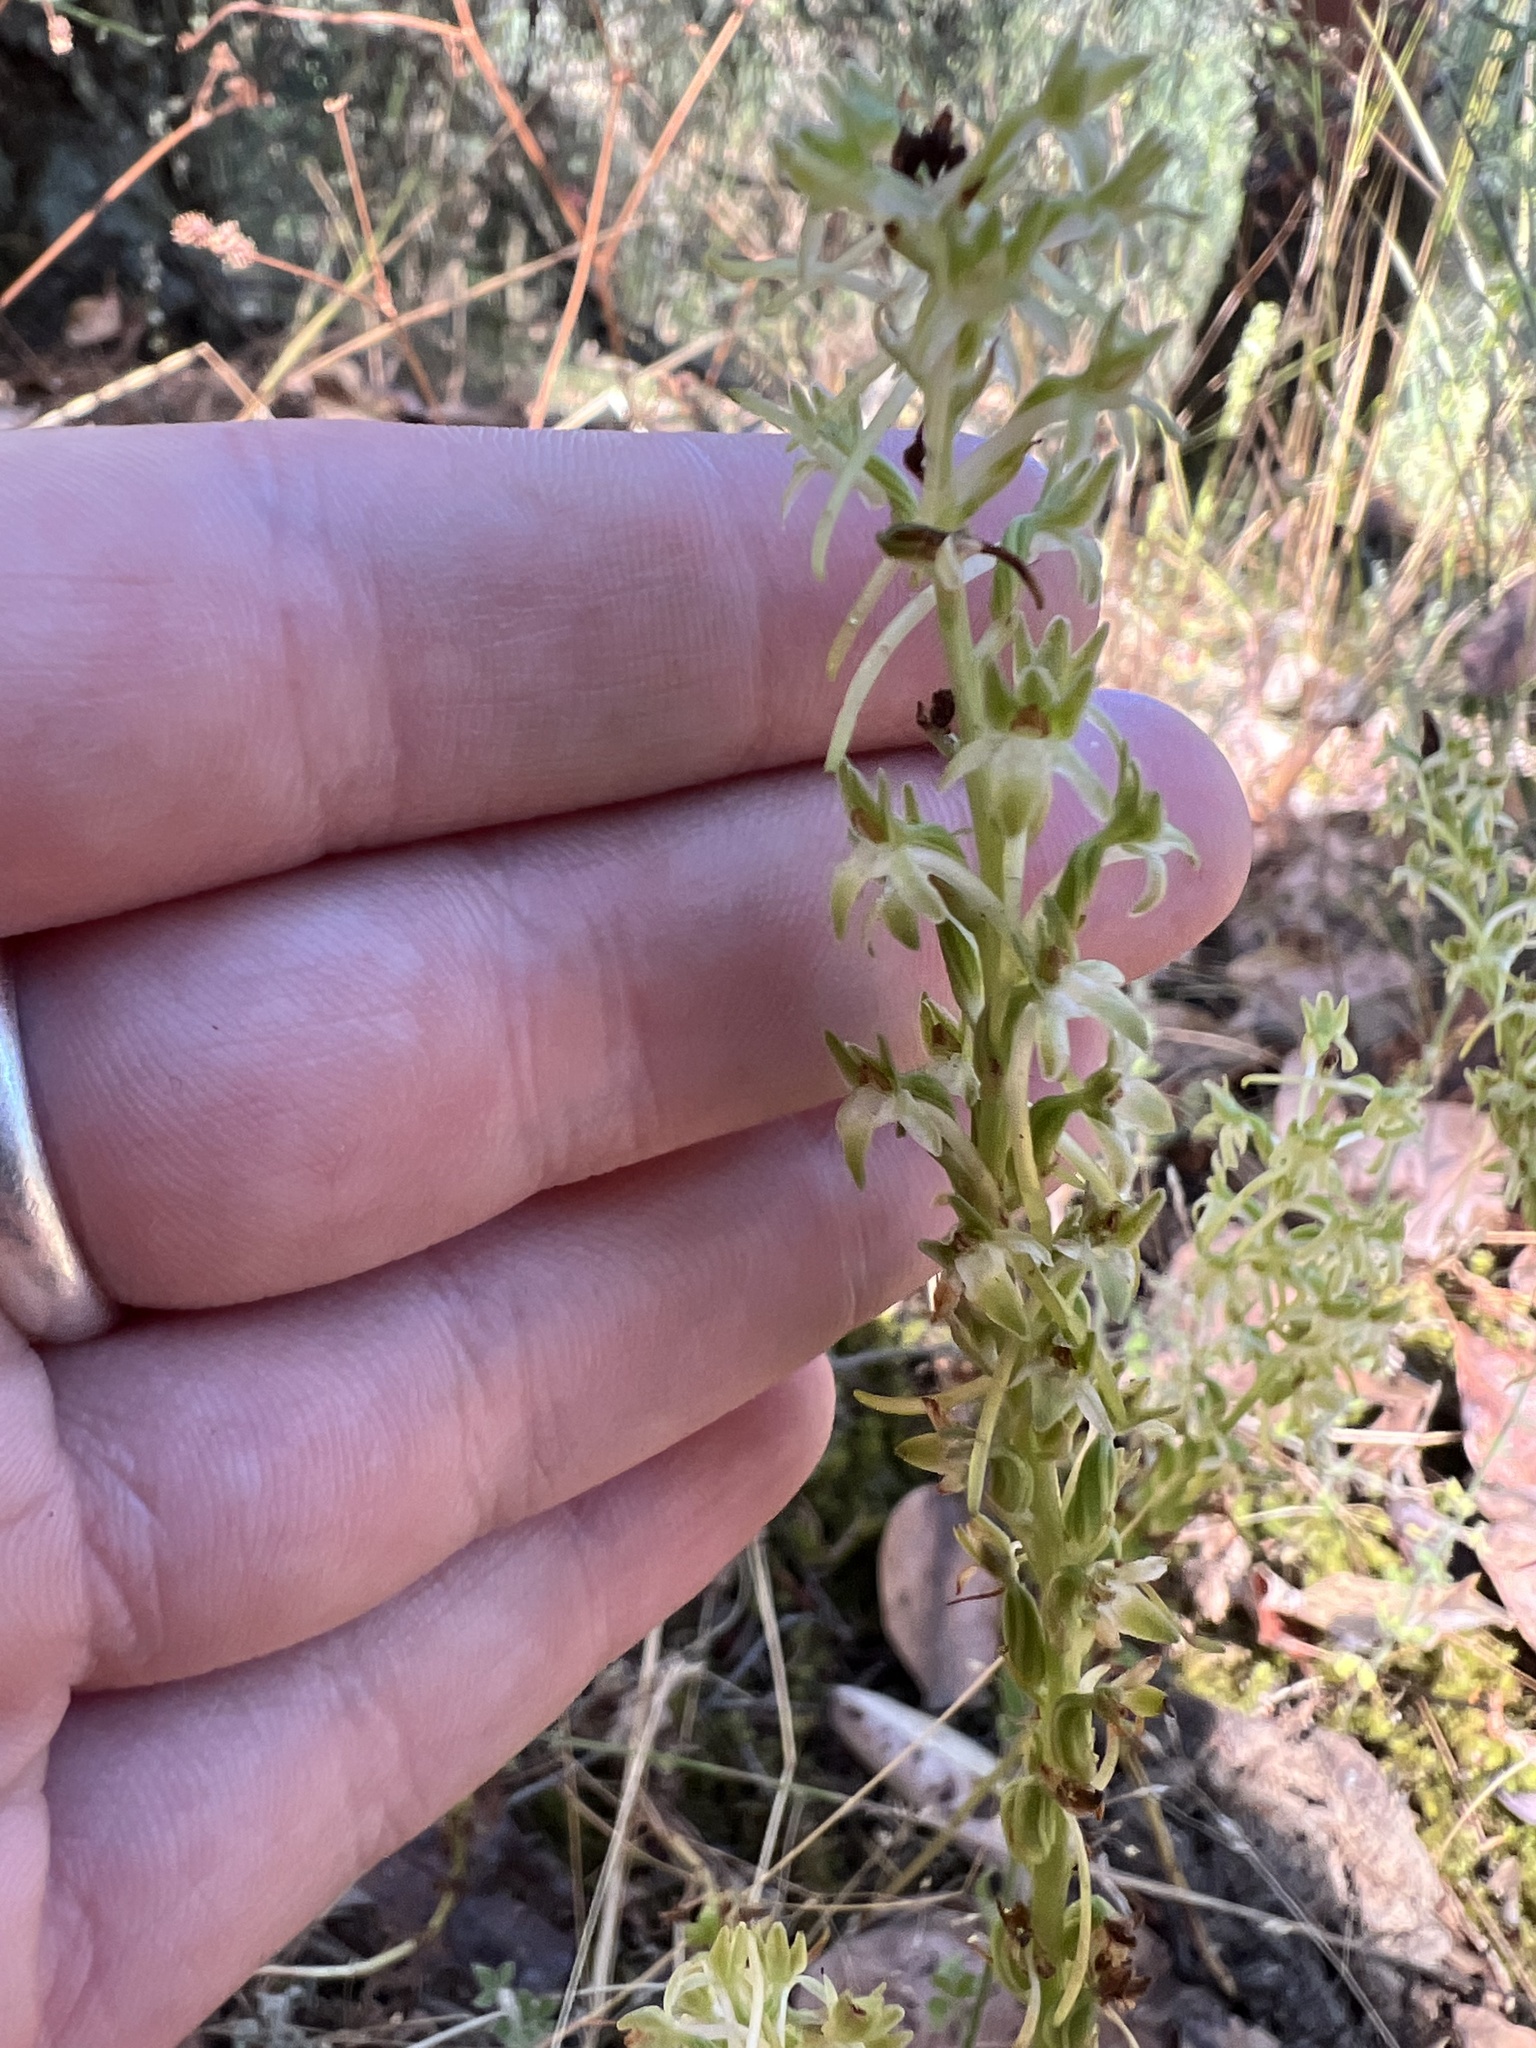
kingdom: Plantae
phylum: Tracheophyta
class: Liliopsida
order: Asparagales
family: Orchidaceae
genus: Platanthera
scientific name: Platanthera elongata
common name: Dense-flowered rein orchid
